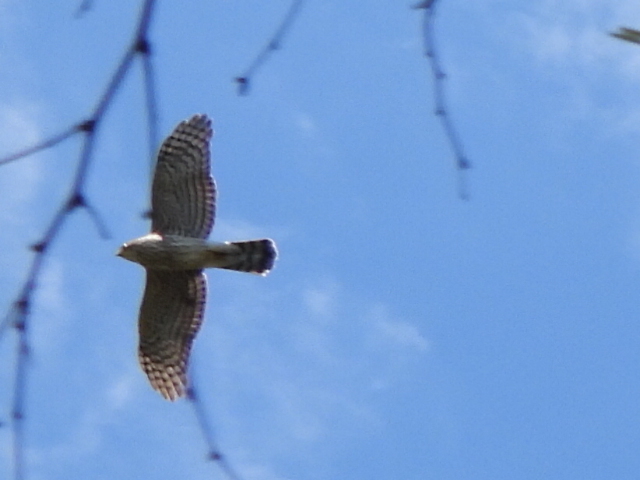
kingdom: Animalia
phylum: Chordata
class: Aves
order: Accipitriformes
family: Accipitridae
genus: Accipiter
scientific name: Accipiter cooperii
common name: Cooper's hawk
